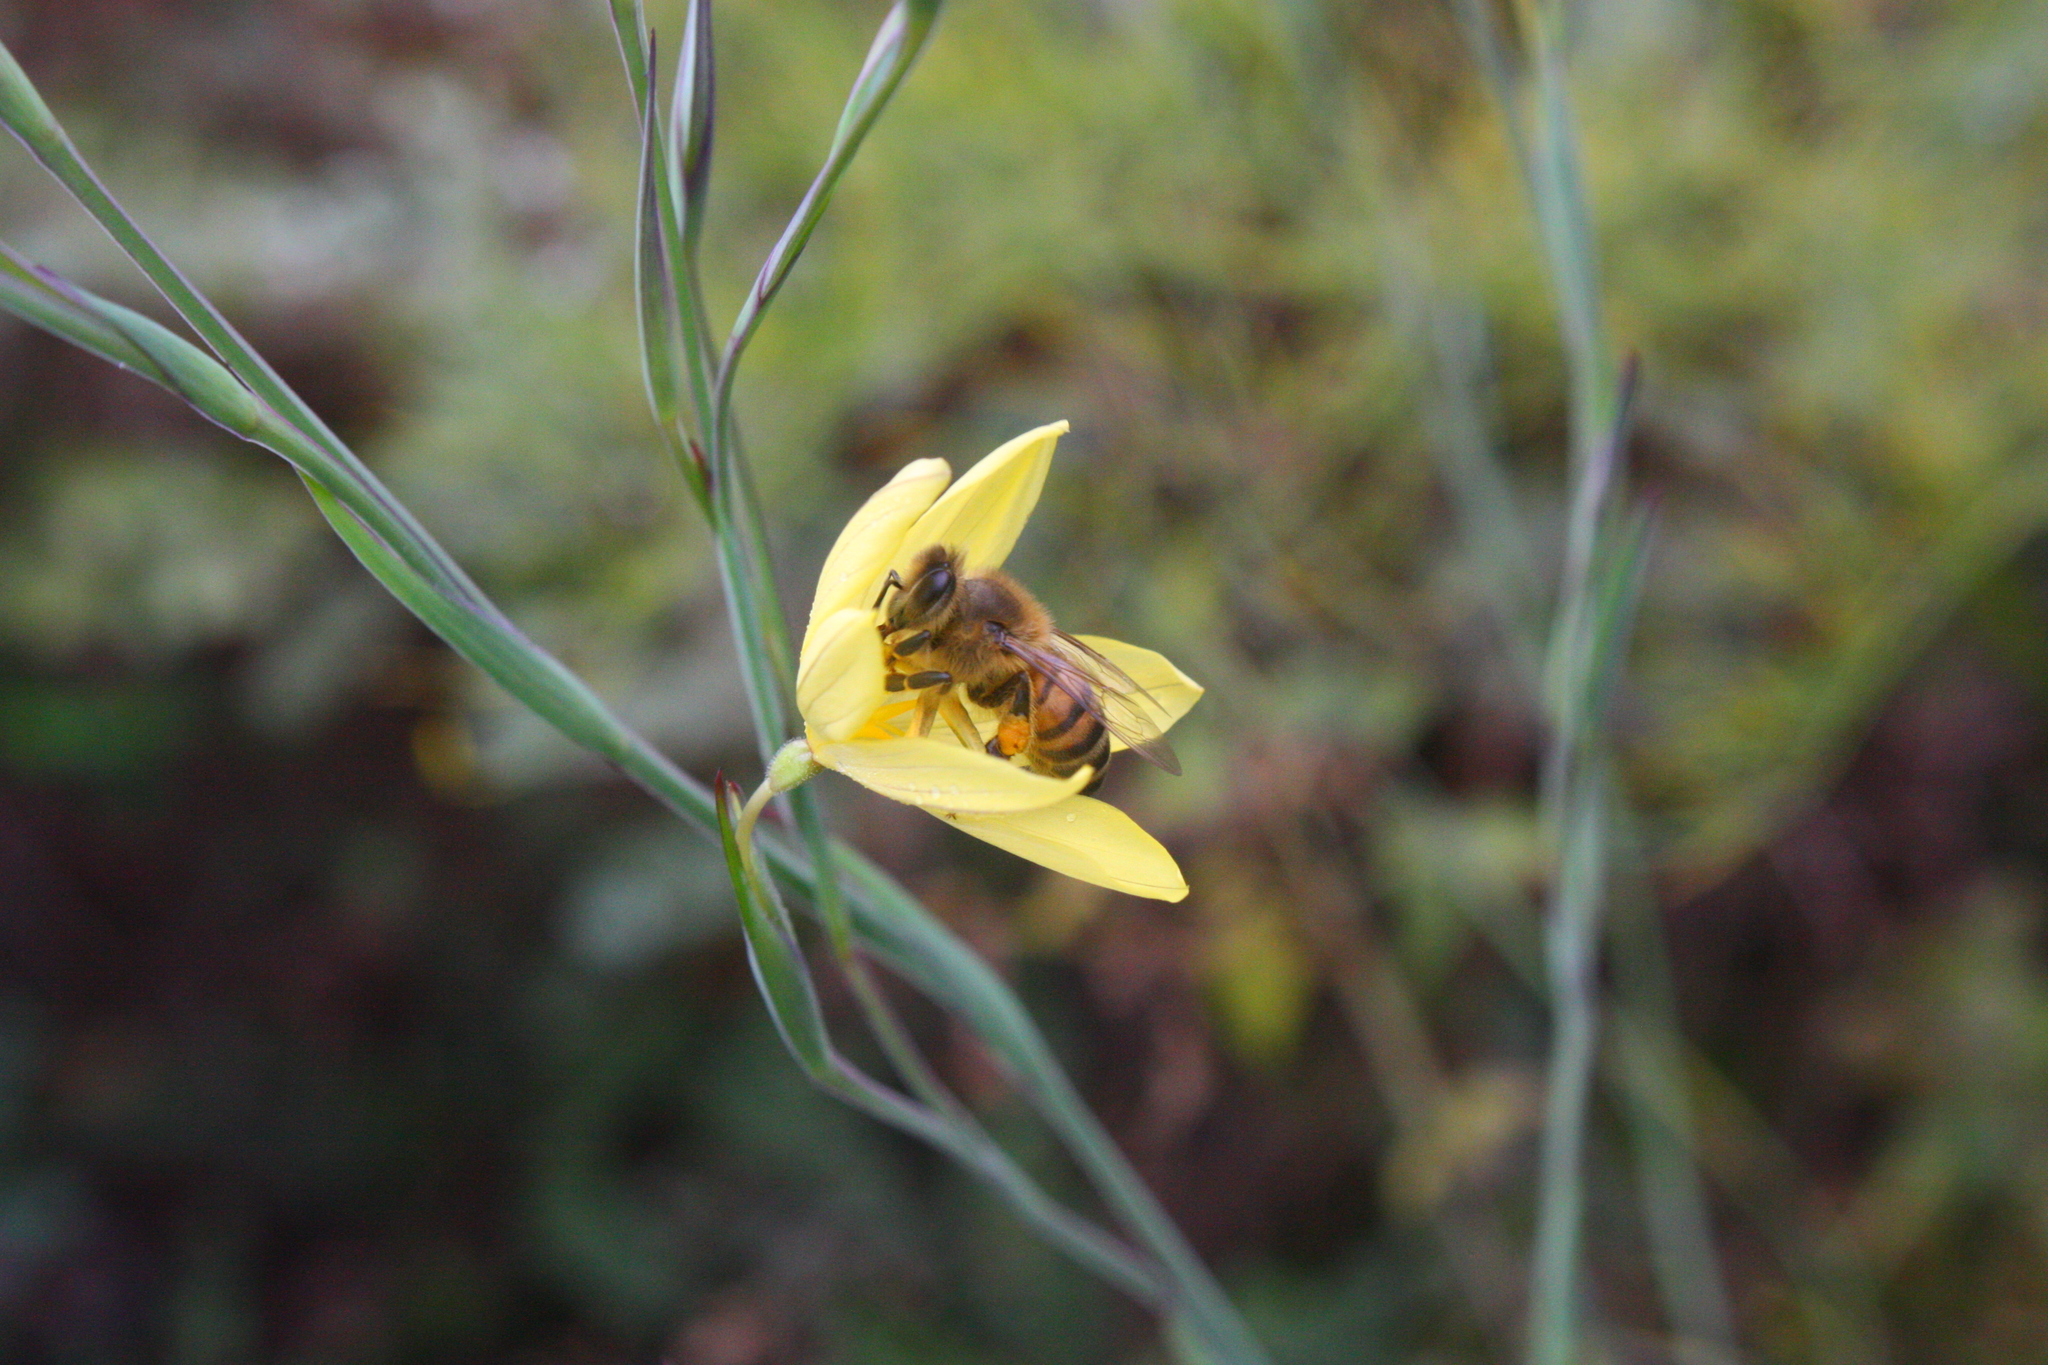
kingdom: Animalia
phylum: Arthropoda
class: Insecta
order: Hymenoptera
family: Apidae
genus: Apis
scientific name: Apis mellifera
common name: Honey bee
